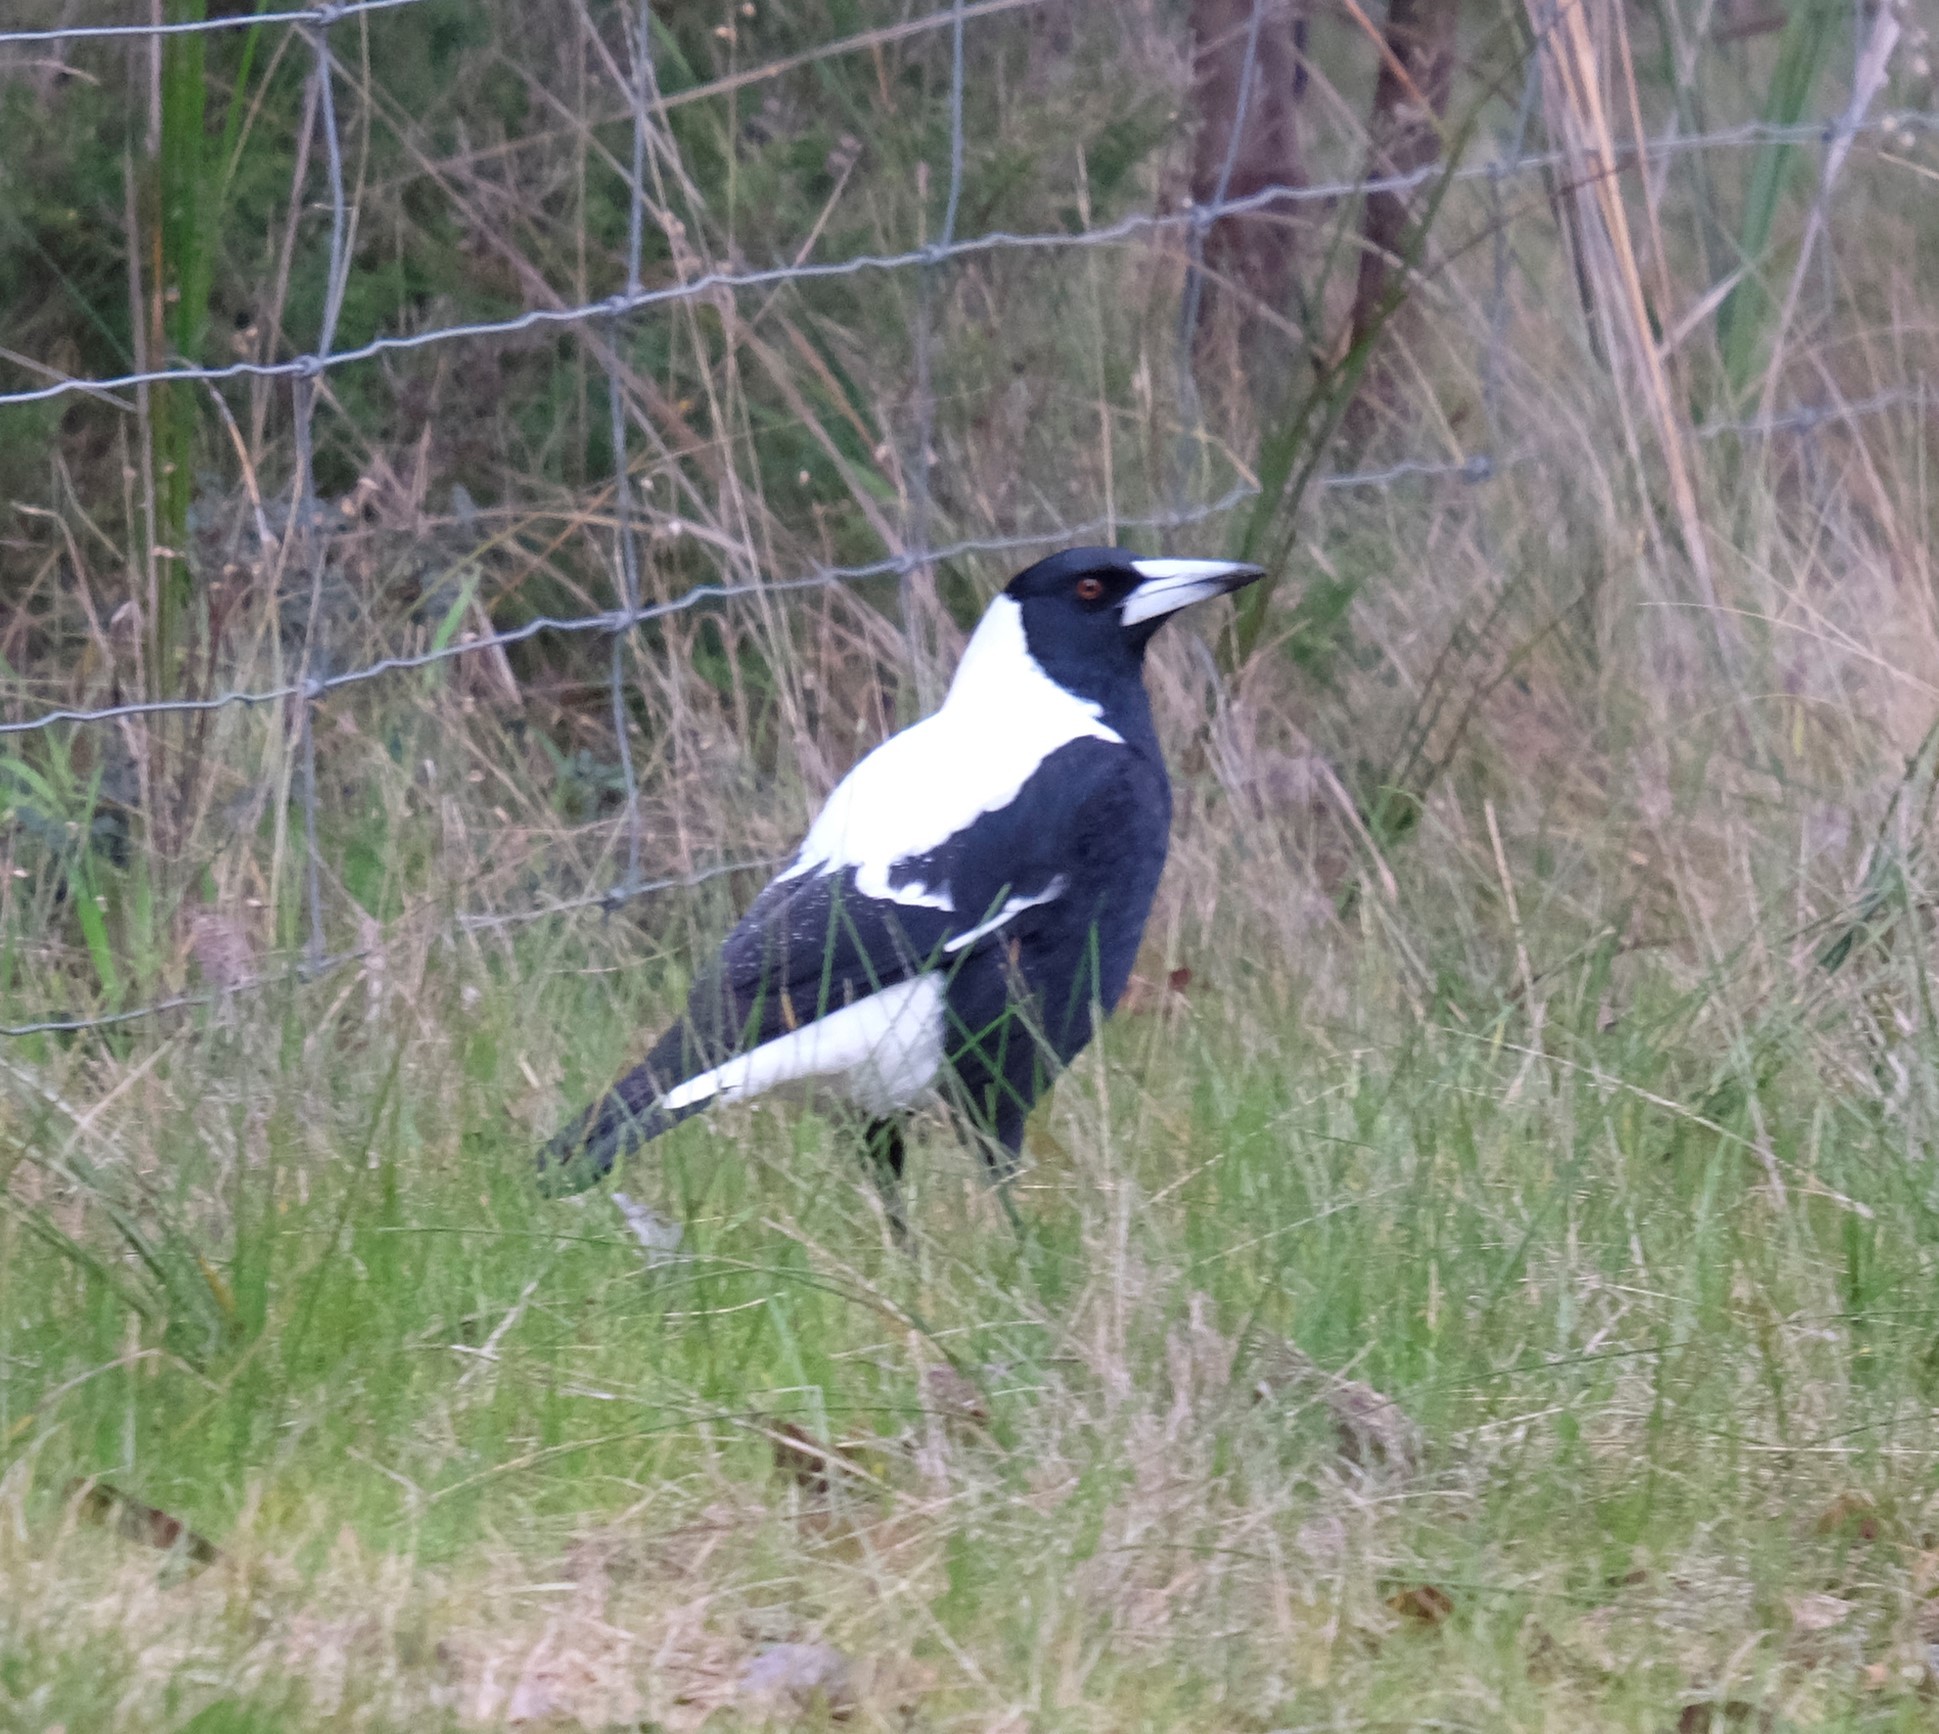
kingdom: Animalia
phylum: Chordata
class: Aves
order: Passeriformes
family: Cracticidae
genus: Gymnorhina
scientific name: Gymnorhina tibicen
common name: Australian magpie
